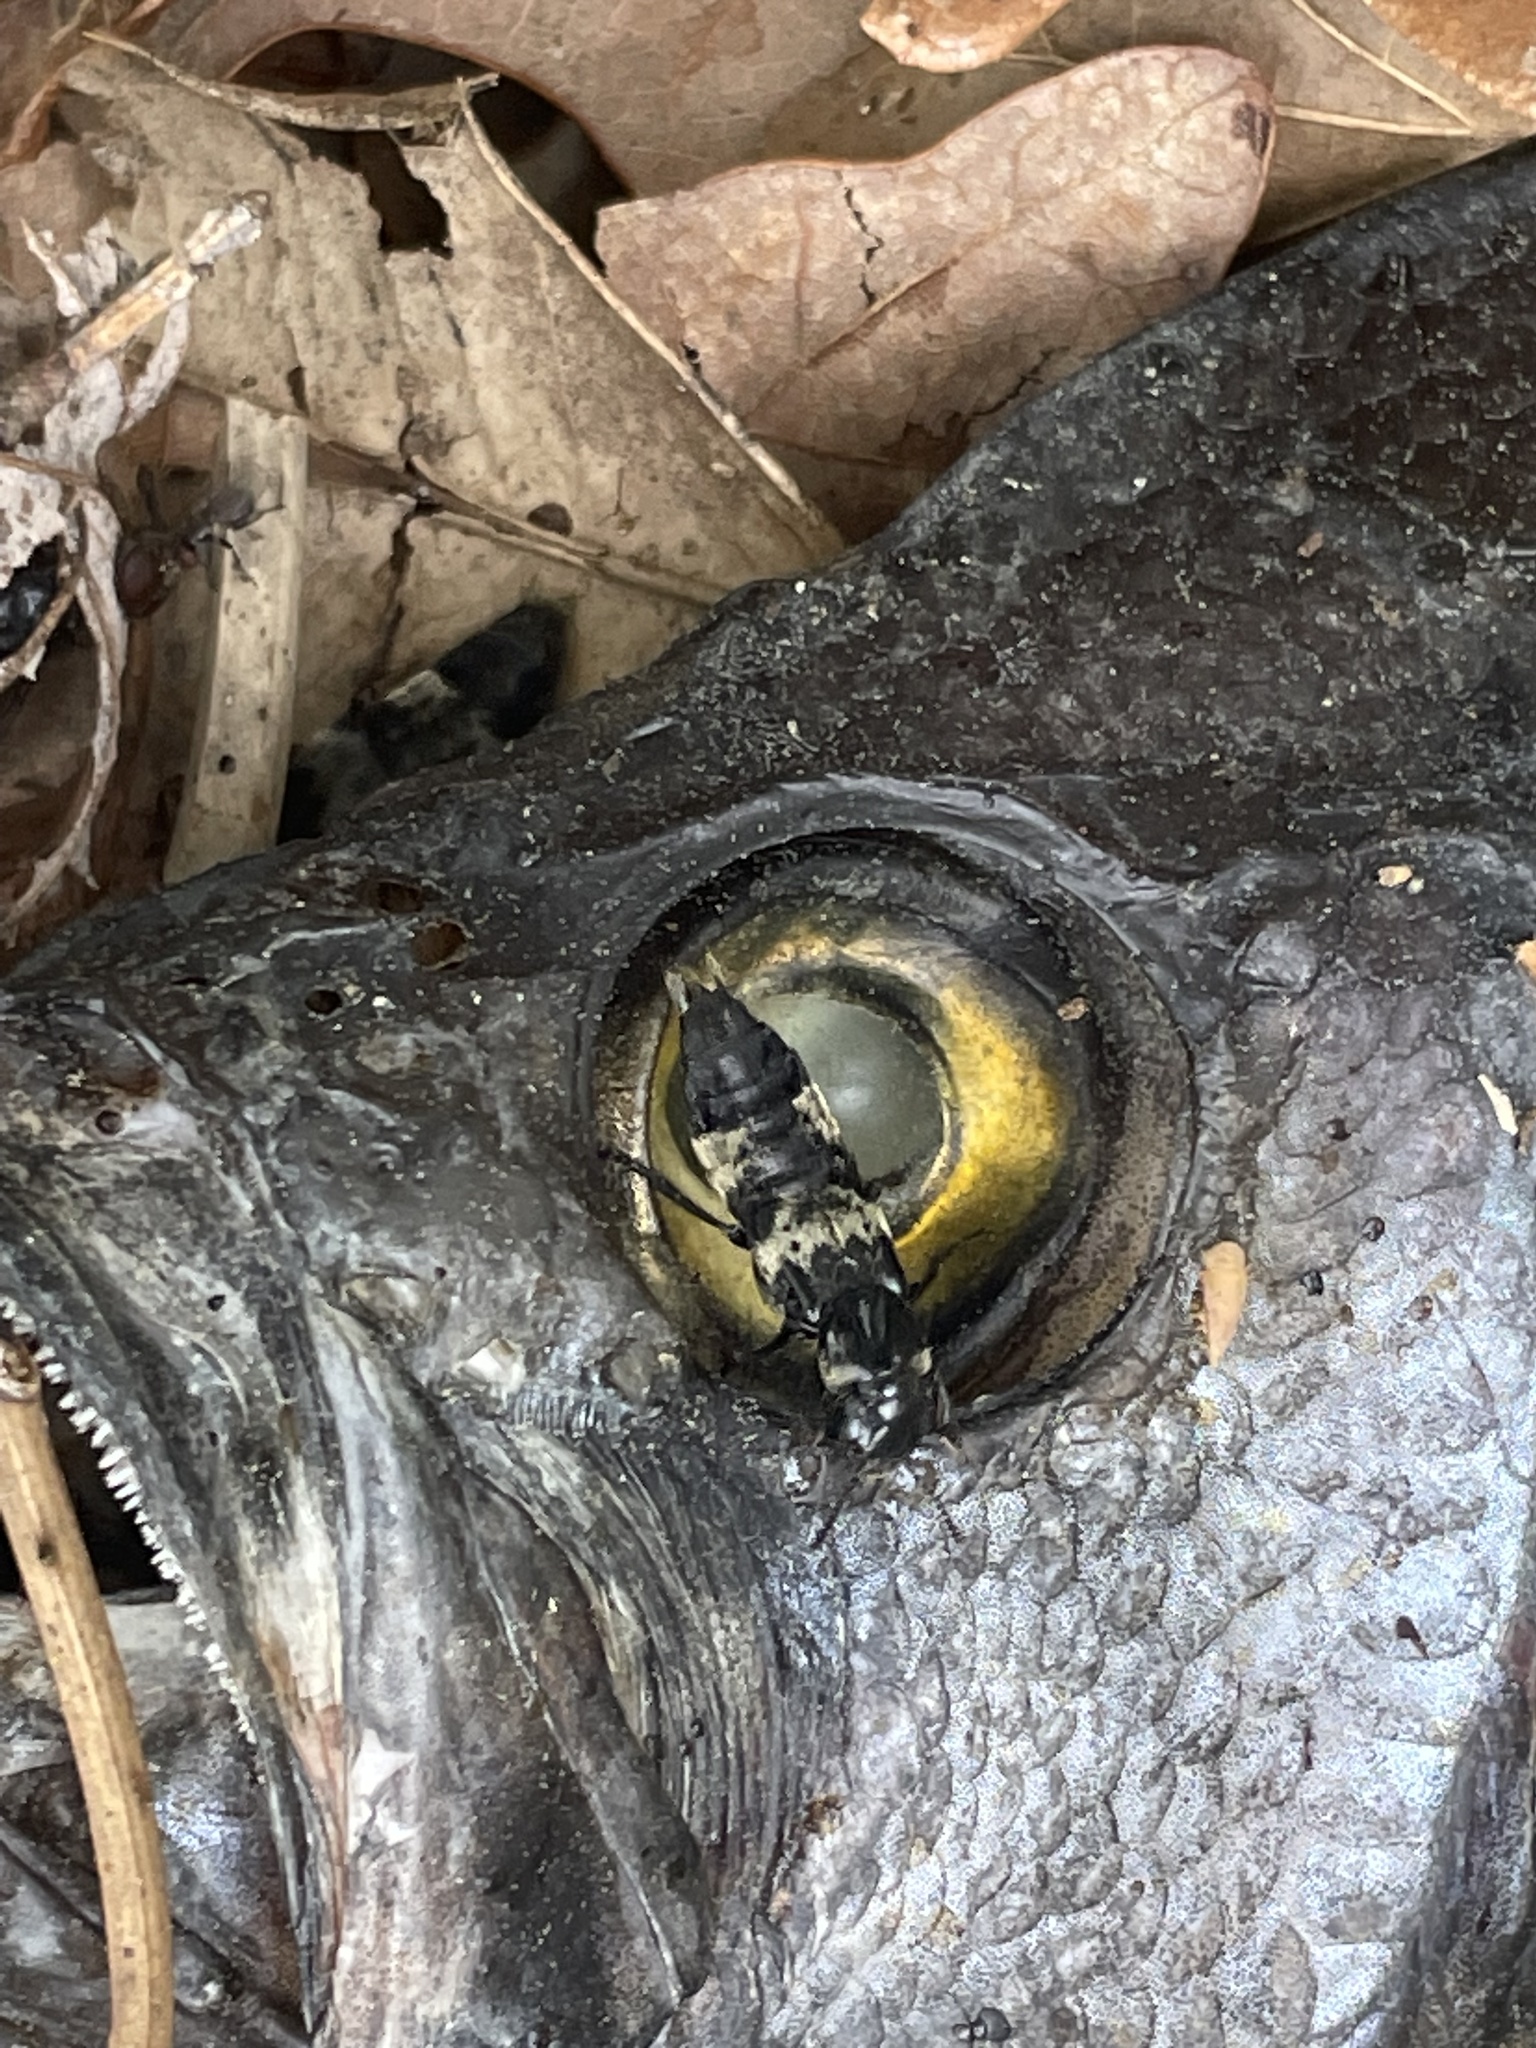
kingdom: Animalia
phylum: Arthropoda
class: Insecta
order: Coleoptera
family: Staphylinidae
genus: Creophilus
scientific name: Creophilus maxillosus
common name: Hairy rove beetle
